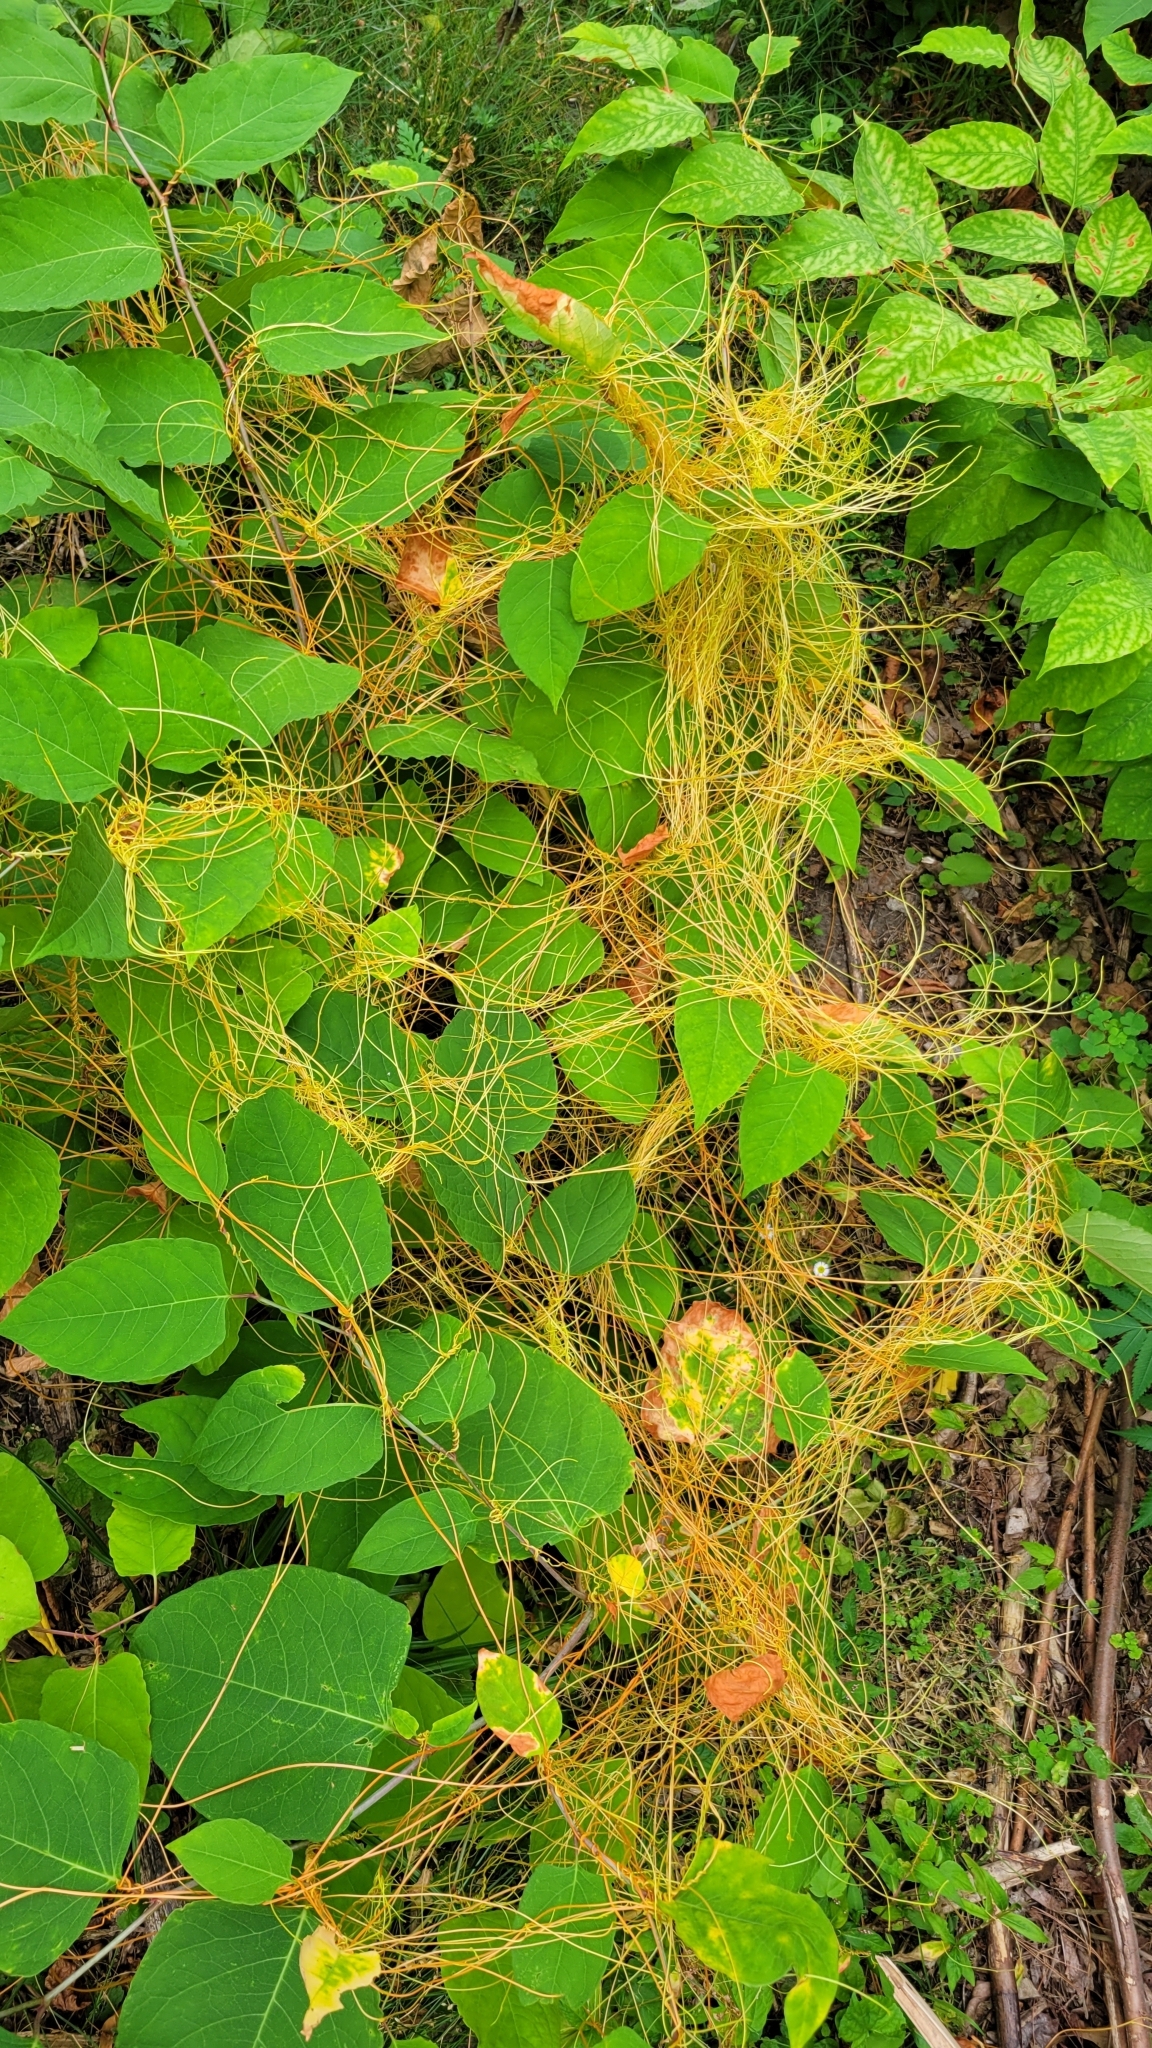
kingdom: Plantae
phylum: Tracheophyta
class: Magnoliopsida
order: Solanales
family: Convolvulaceae
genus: Cuscuta
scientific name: Cuscuta campestris
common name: Yellow dodder
